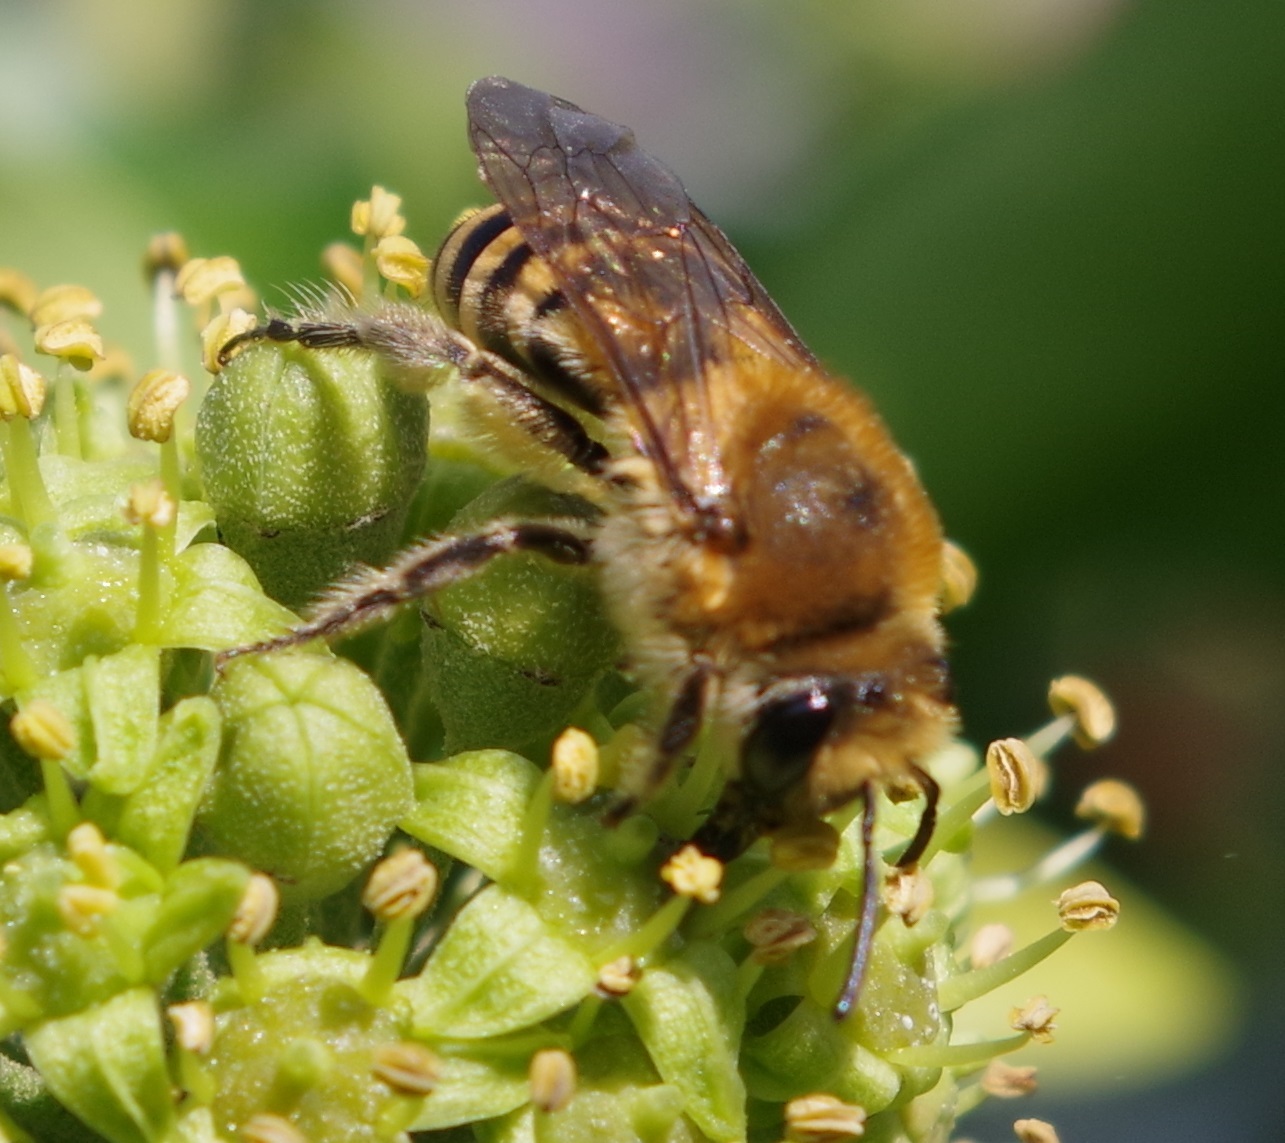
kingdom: Animalia
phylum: Arthropoda
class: Insecta
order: Hymenoptera
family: Colletidae
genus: Colletes
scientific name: Colletes hederae
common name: Ivy bee
